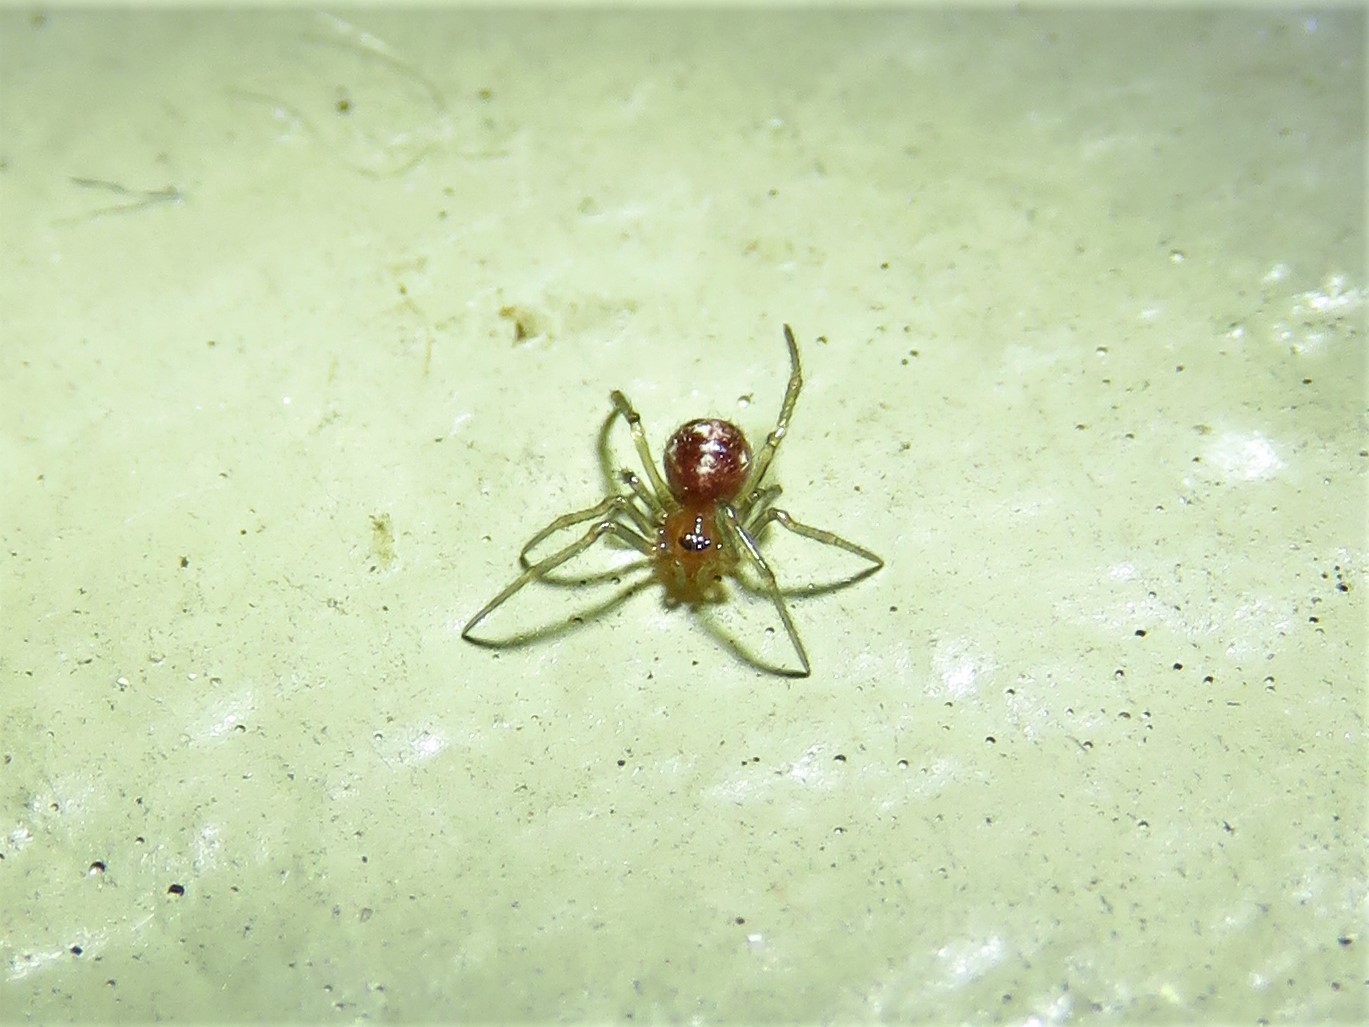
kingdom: Animalia
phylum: Arthropoda
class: Arachnida
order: Araneae
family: Theridiidae
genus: Steatoda
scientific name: Steatoda triangulosa
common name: Triangulate bud spider
